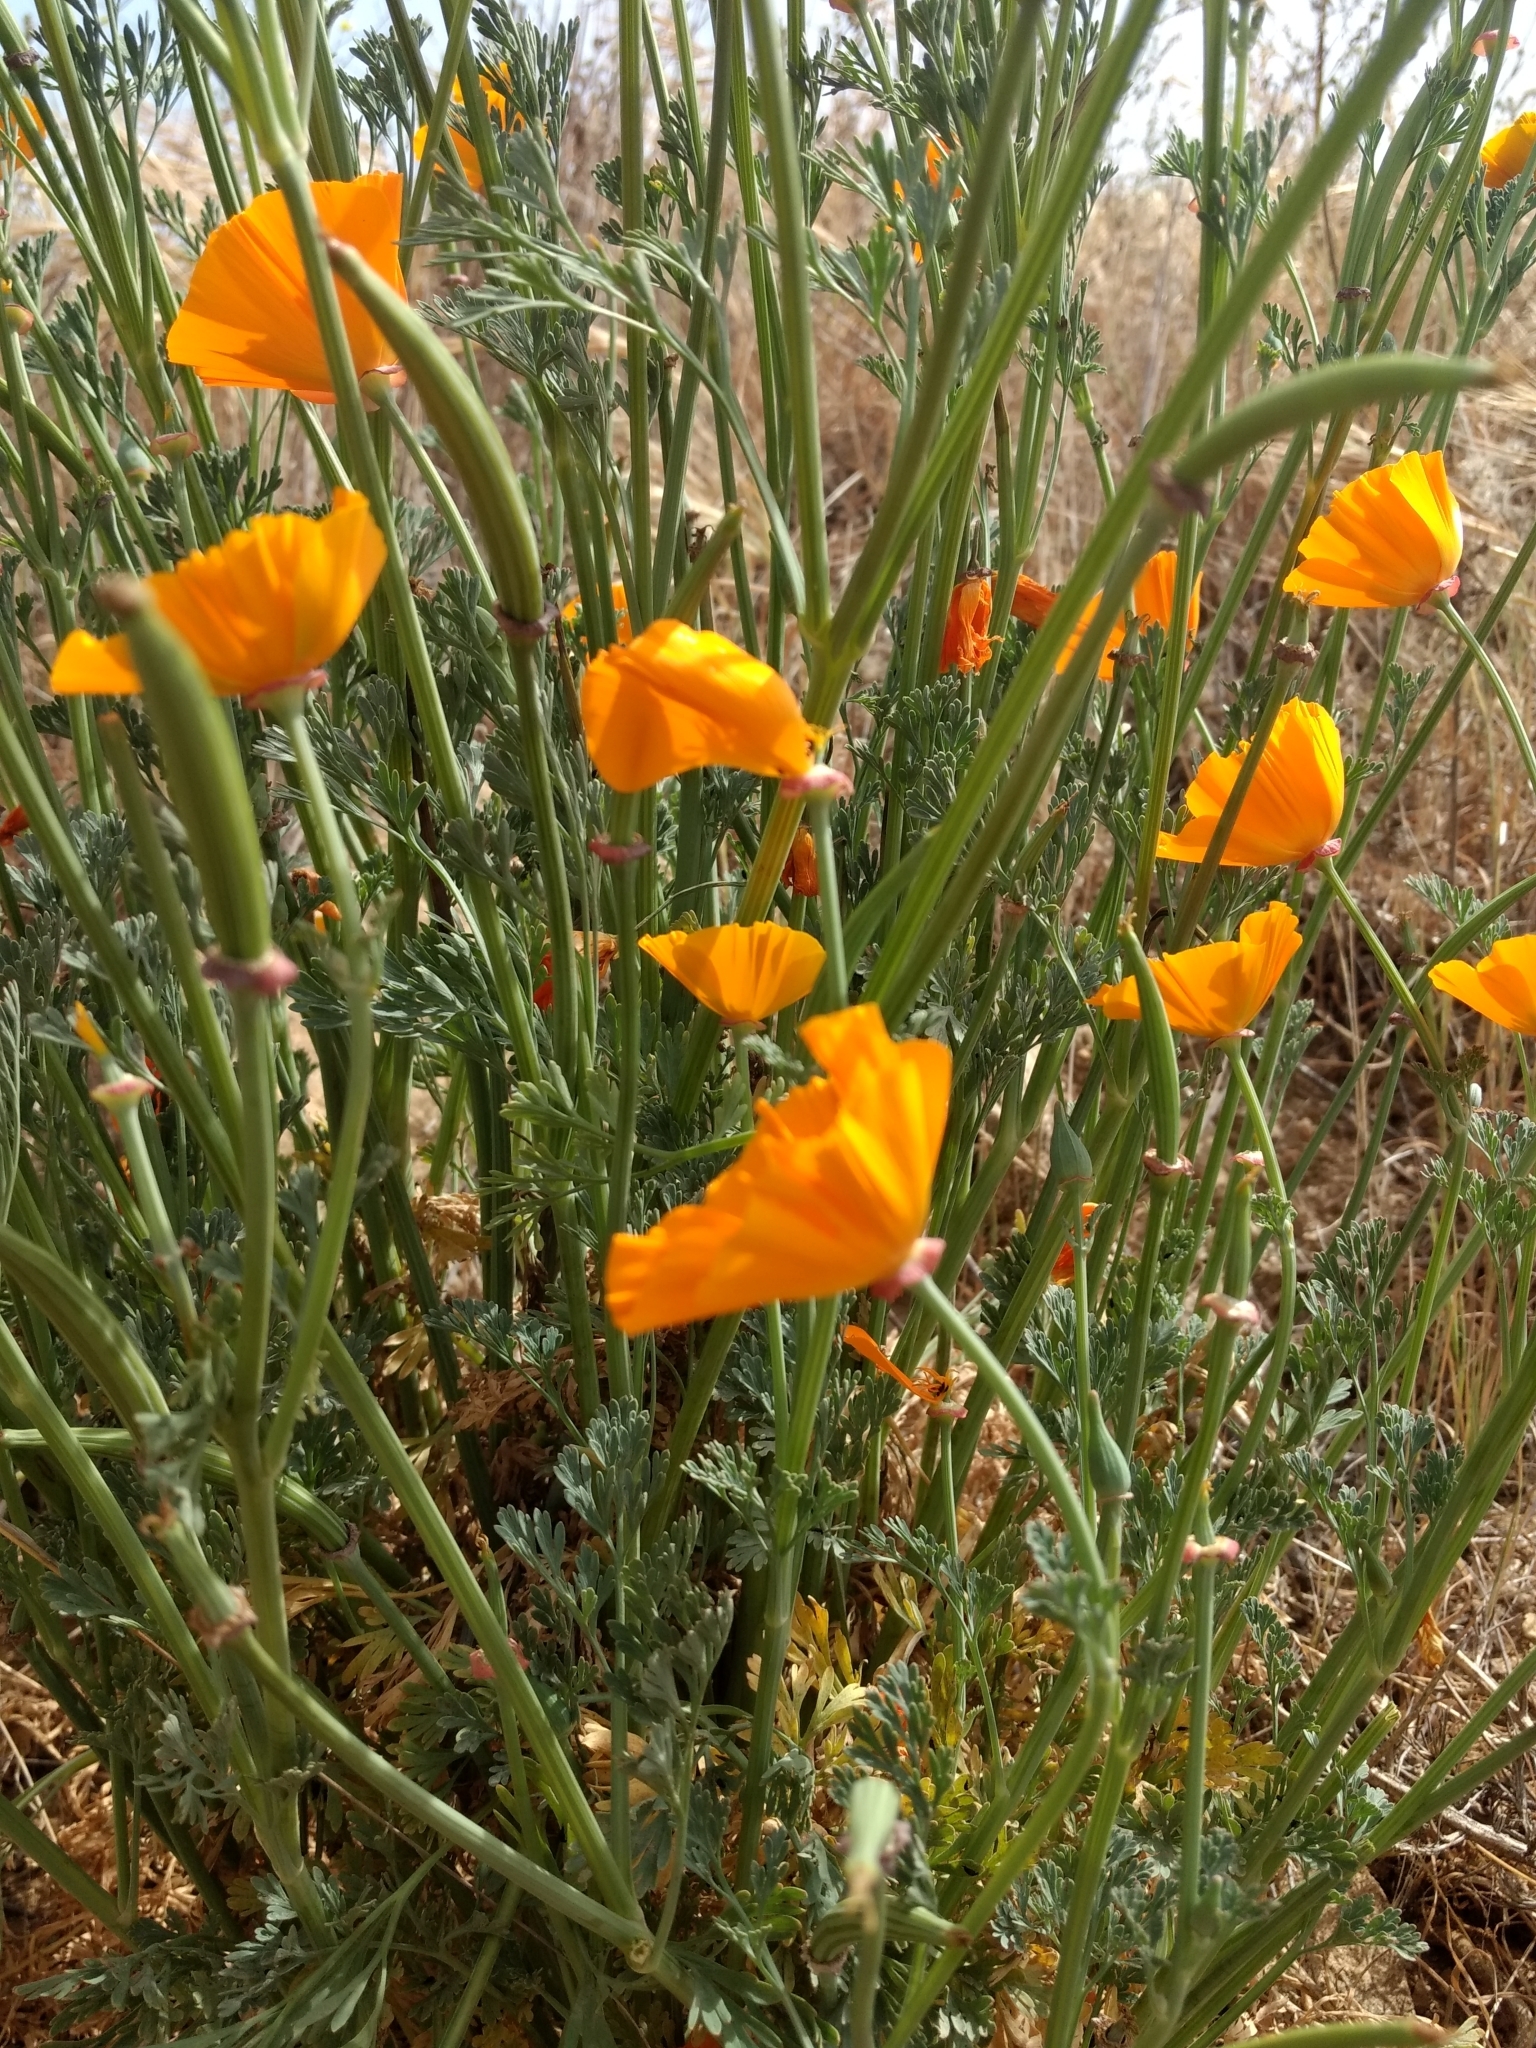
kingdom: Plantae
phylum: Tracheophyta
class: Magnoliopsida
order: Ranunculales
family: Papaveraceae
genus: Eschscholzia
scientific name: Eschscholzia californica
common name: California poppy
